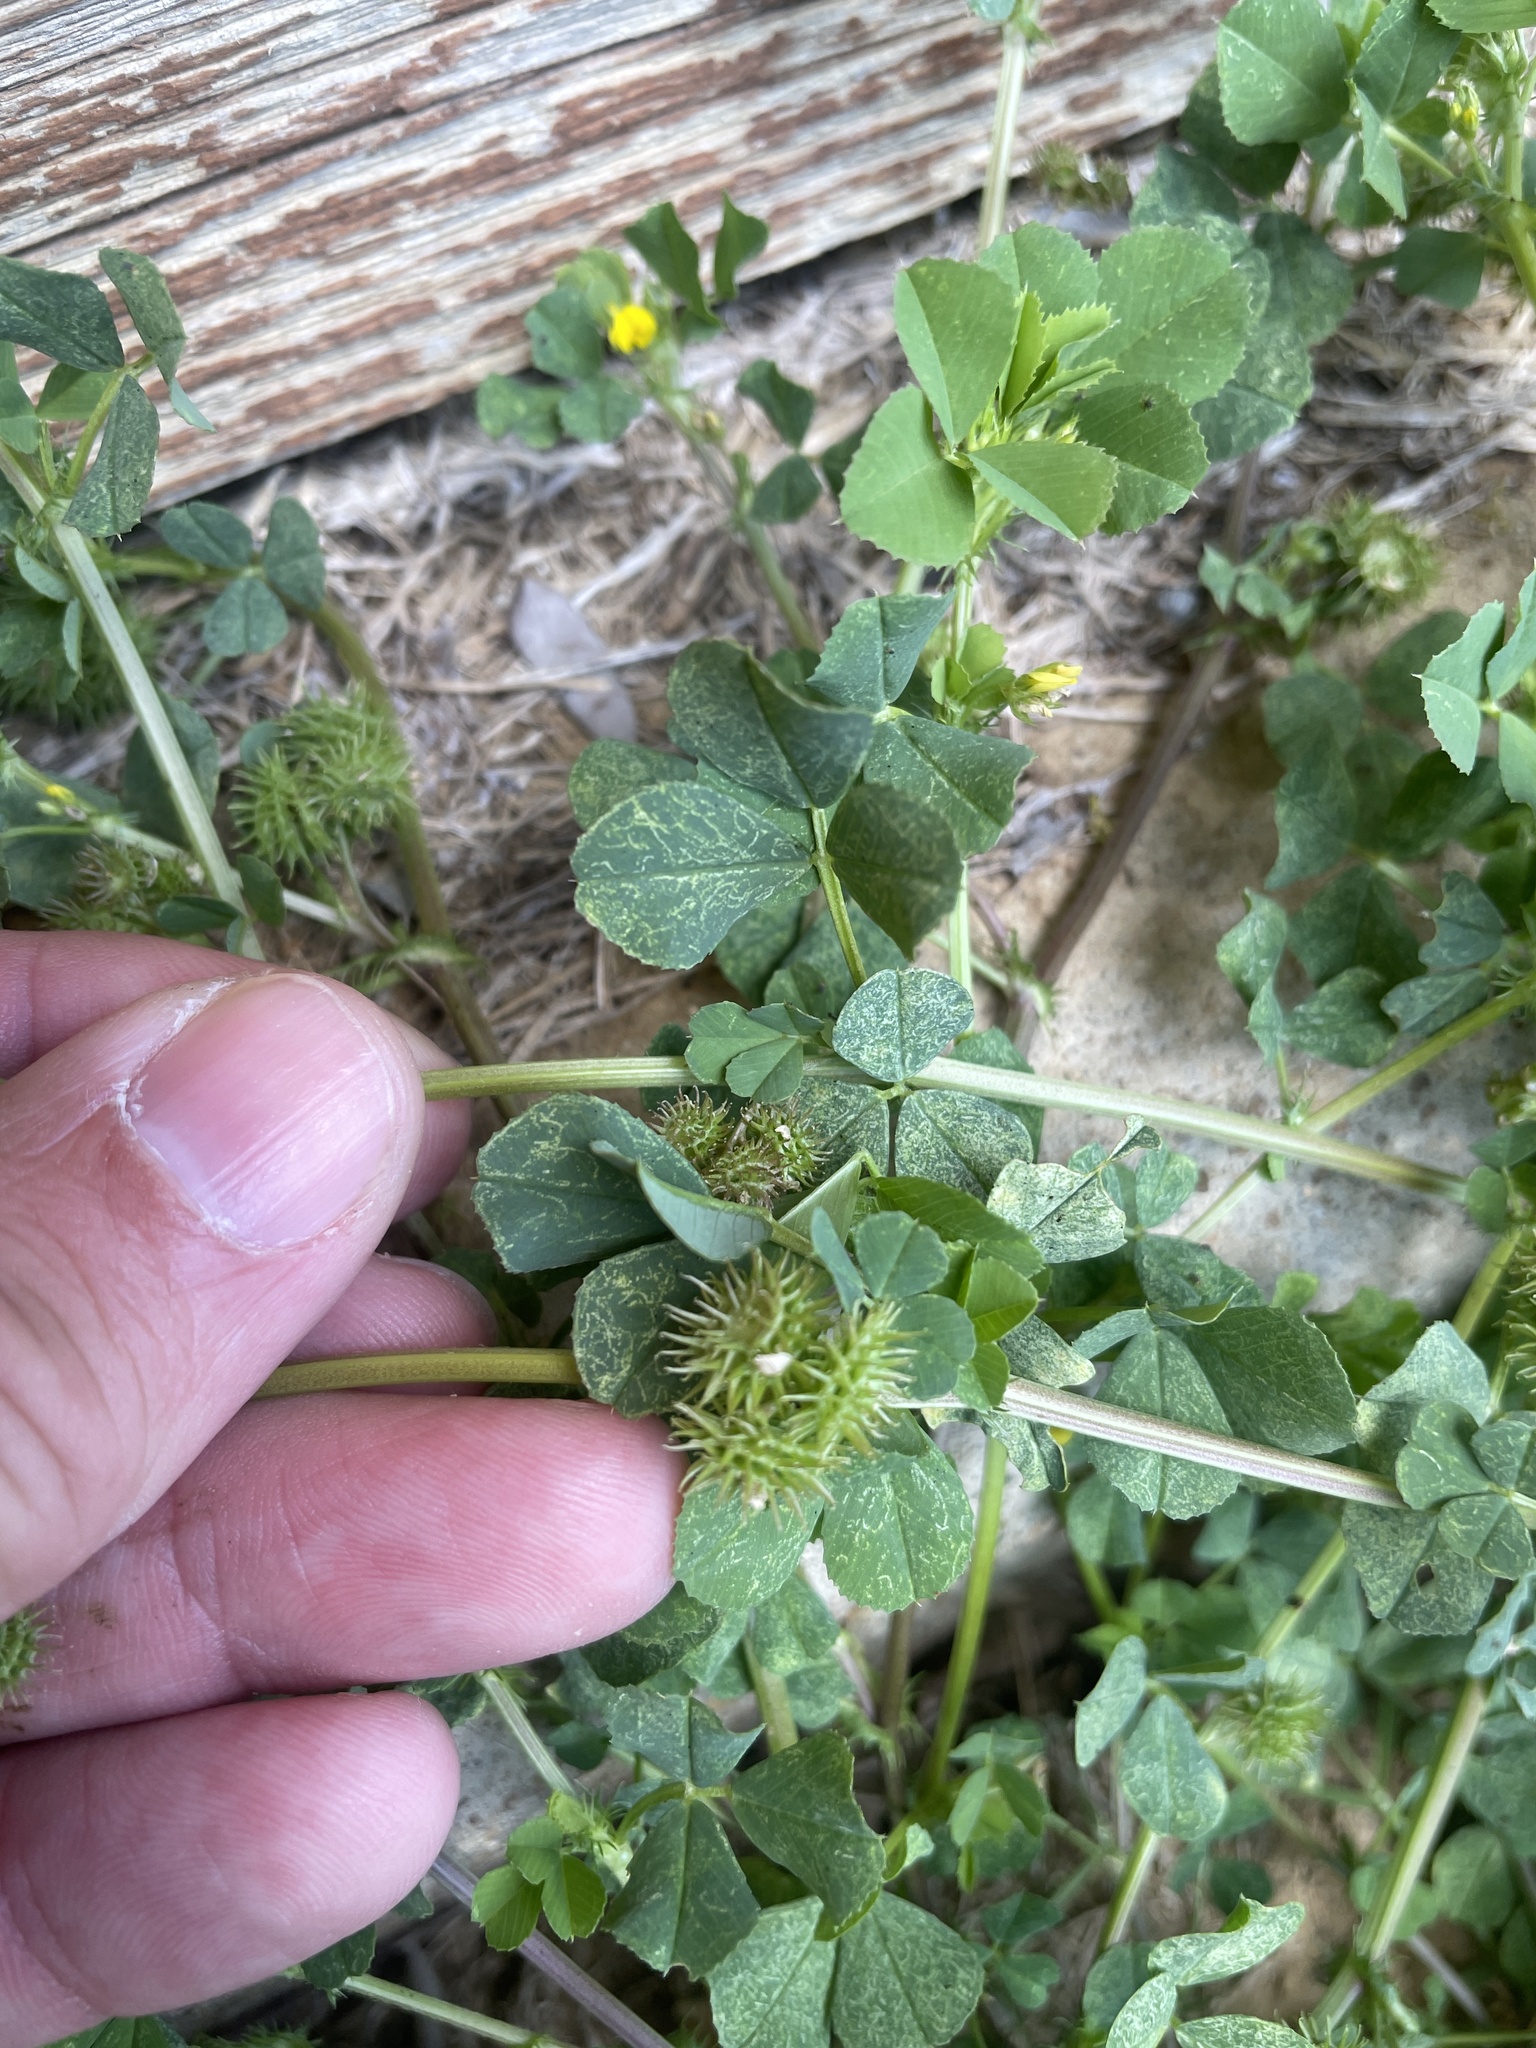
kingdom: Plantae
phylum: Tracheophyta
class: Magnoliopsida
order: Fabales
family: Fabaceae
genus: Medicago
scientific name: Medicago polymorpha
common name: Burclover
